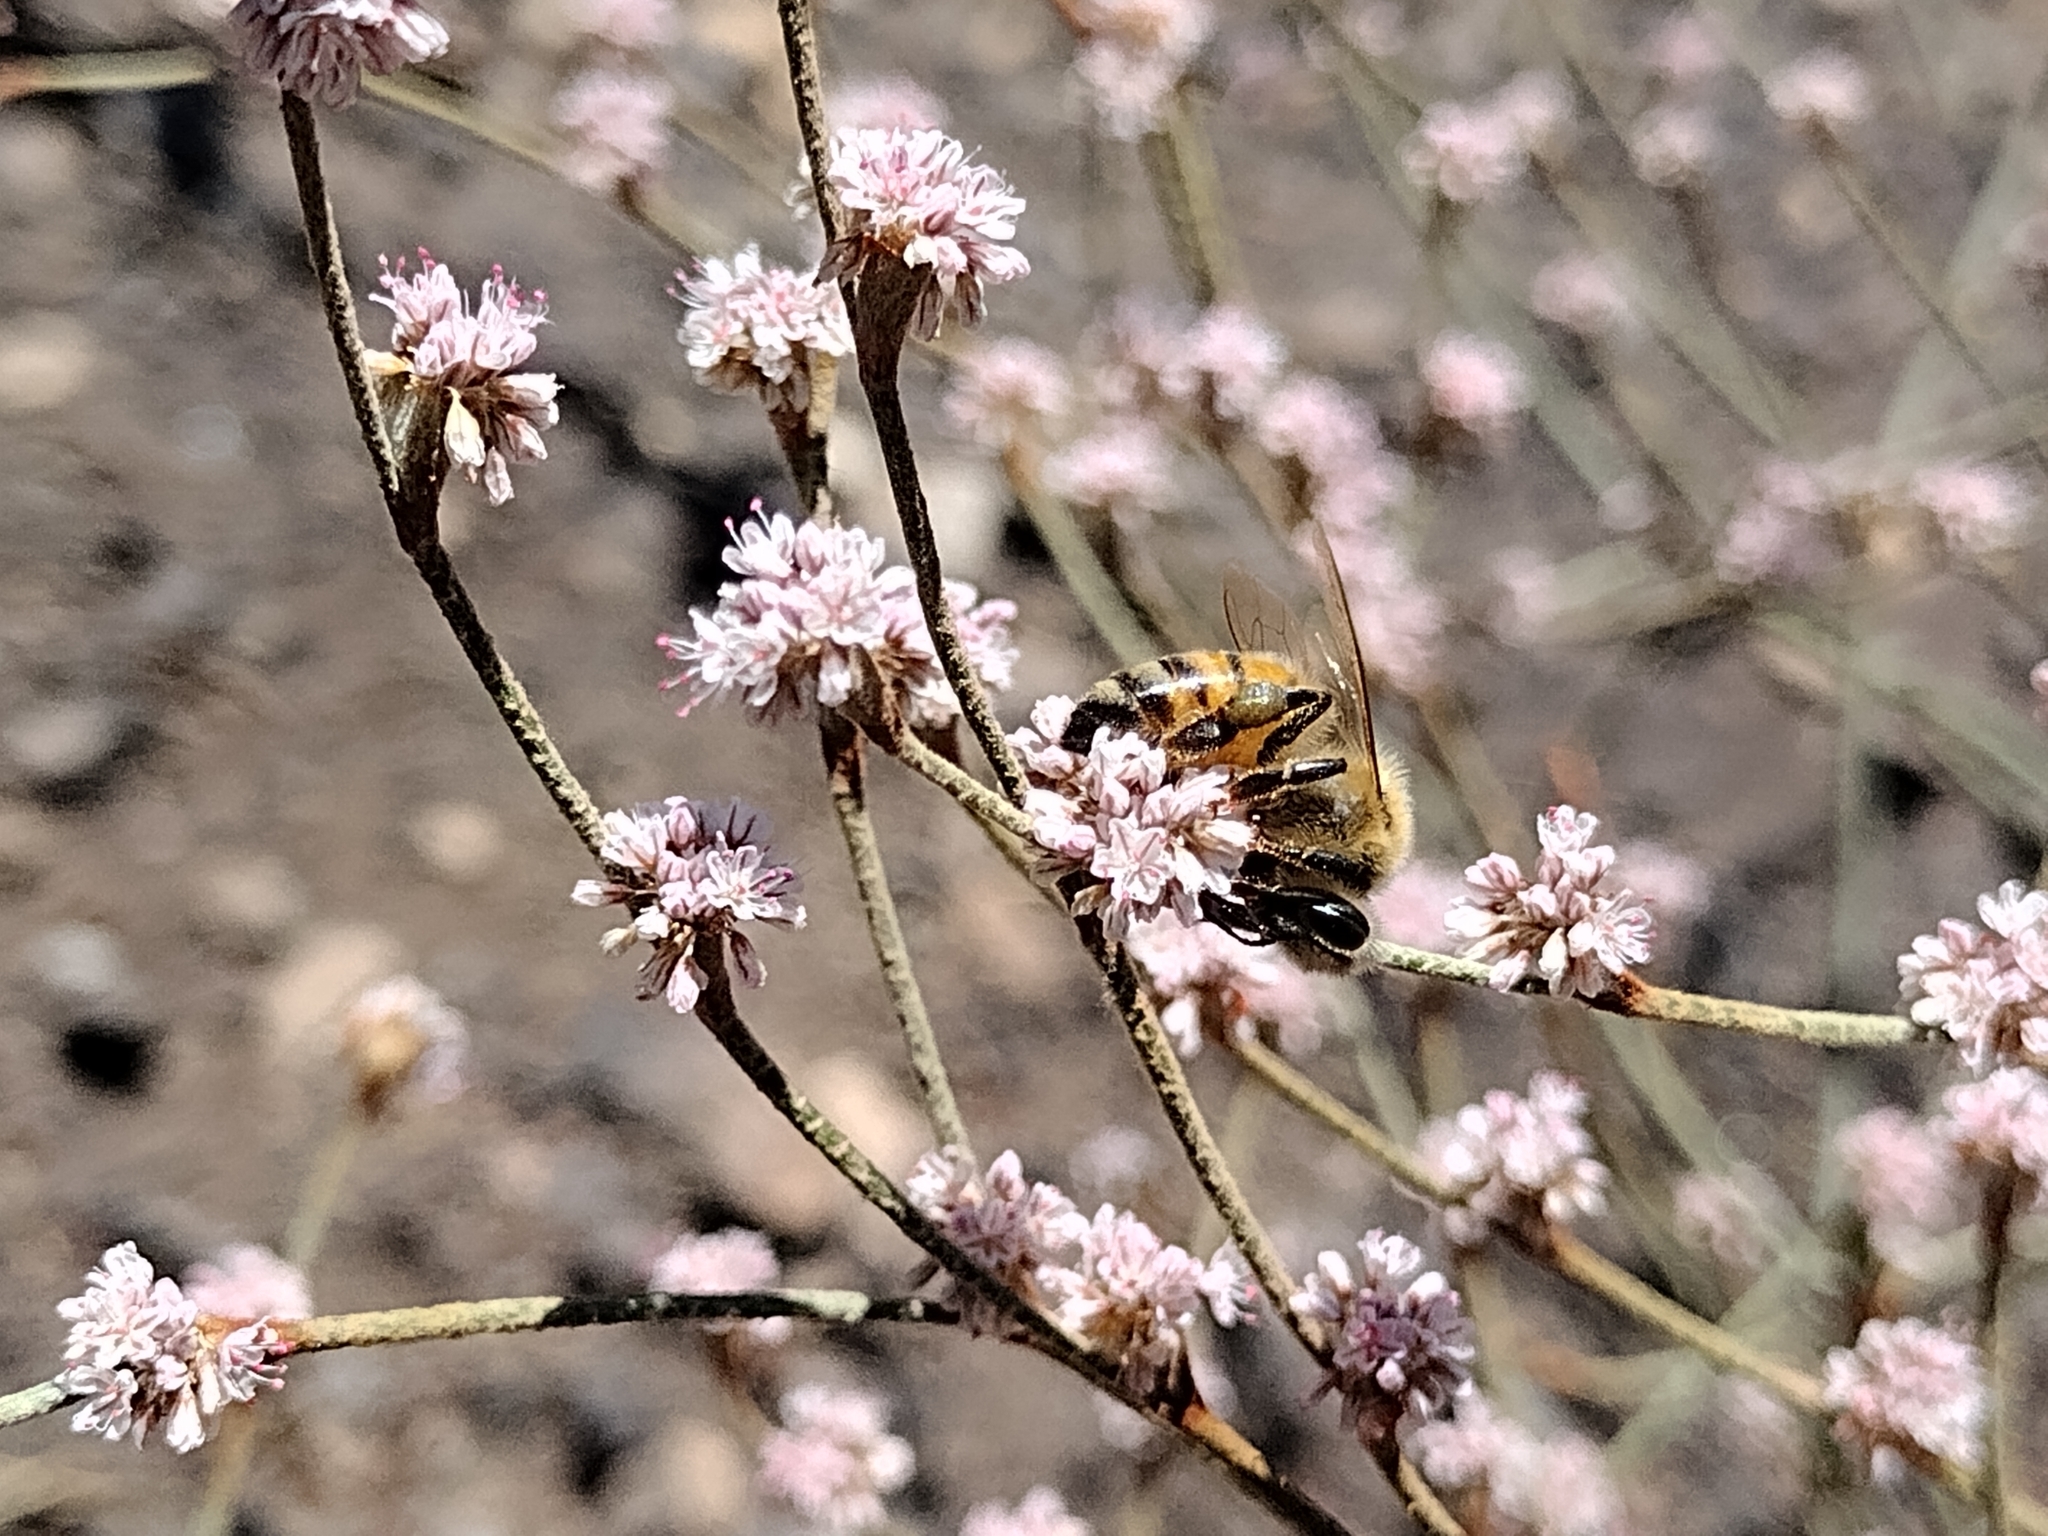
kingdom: Plantae
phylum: Tracheophyta
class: Magnoliopsida
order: Caryophyllales
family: Polygonaceae
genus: Eriogonum
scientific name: Eriogonum elongatum
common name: Long-stem wild buckwheat
